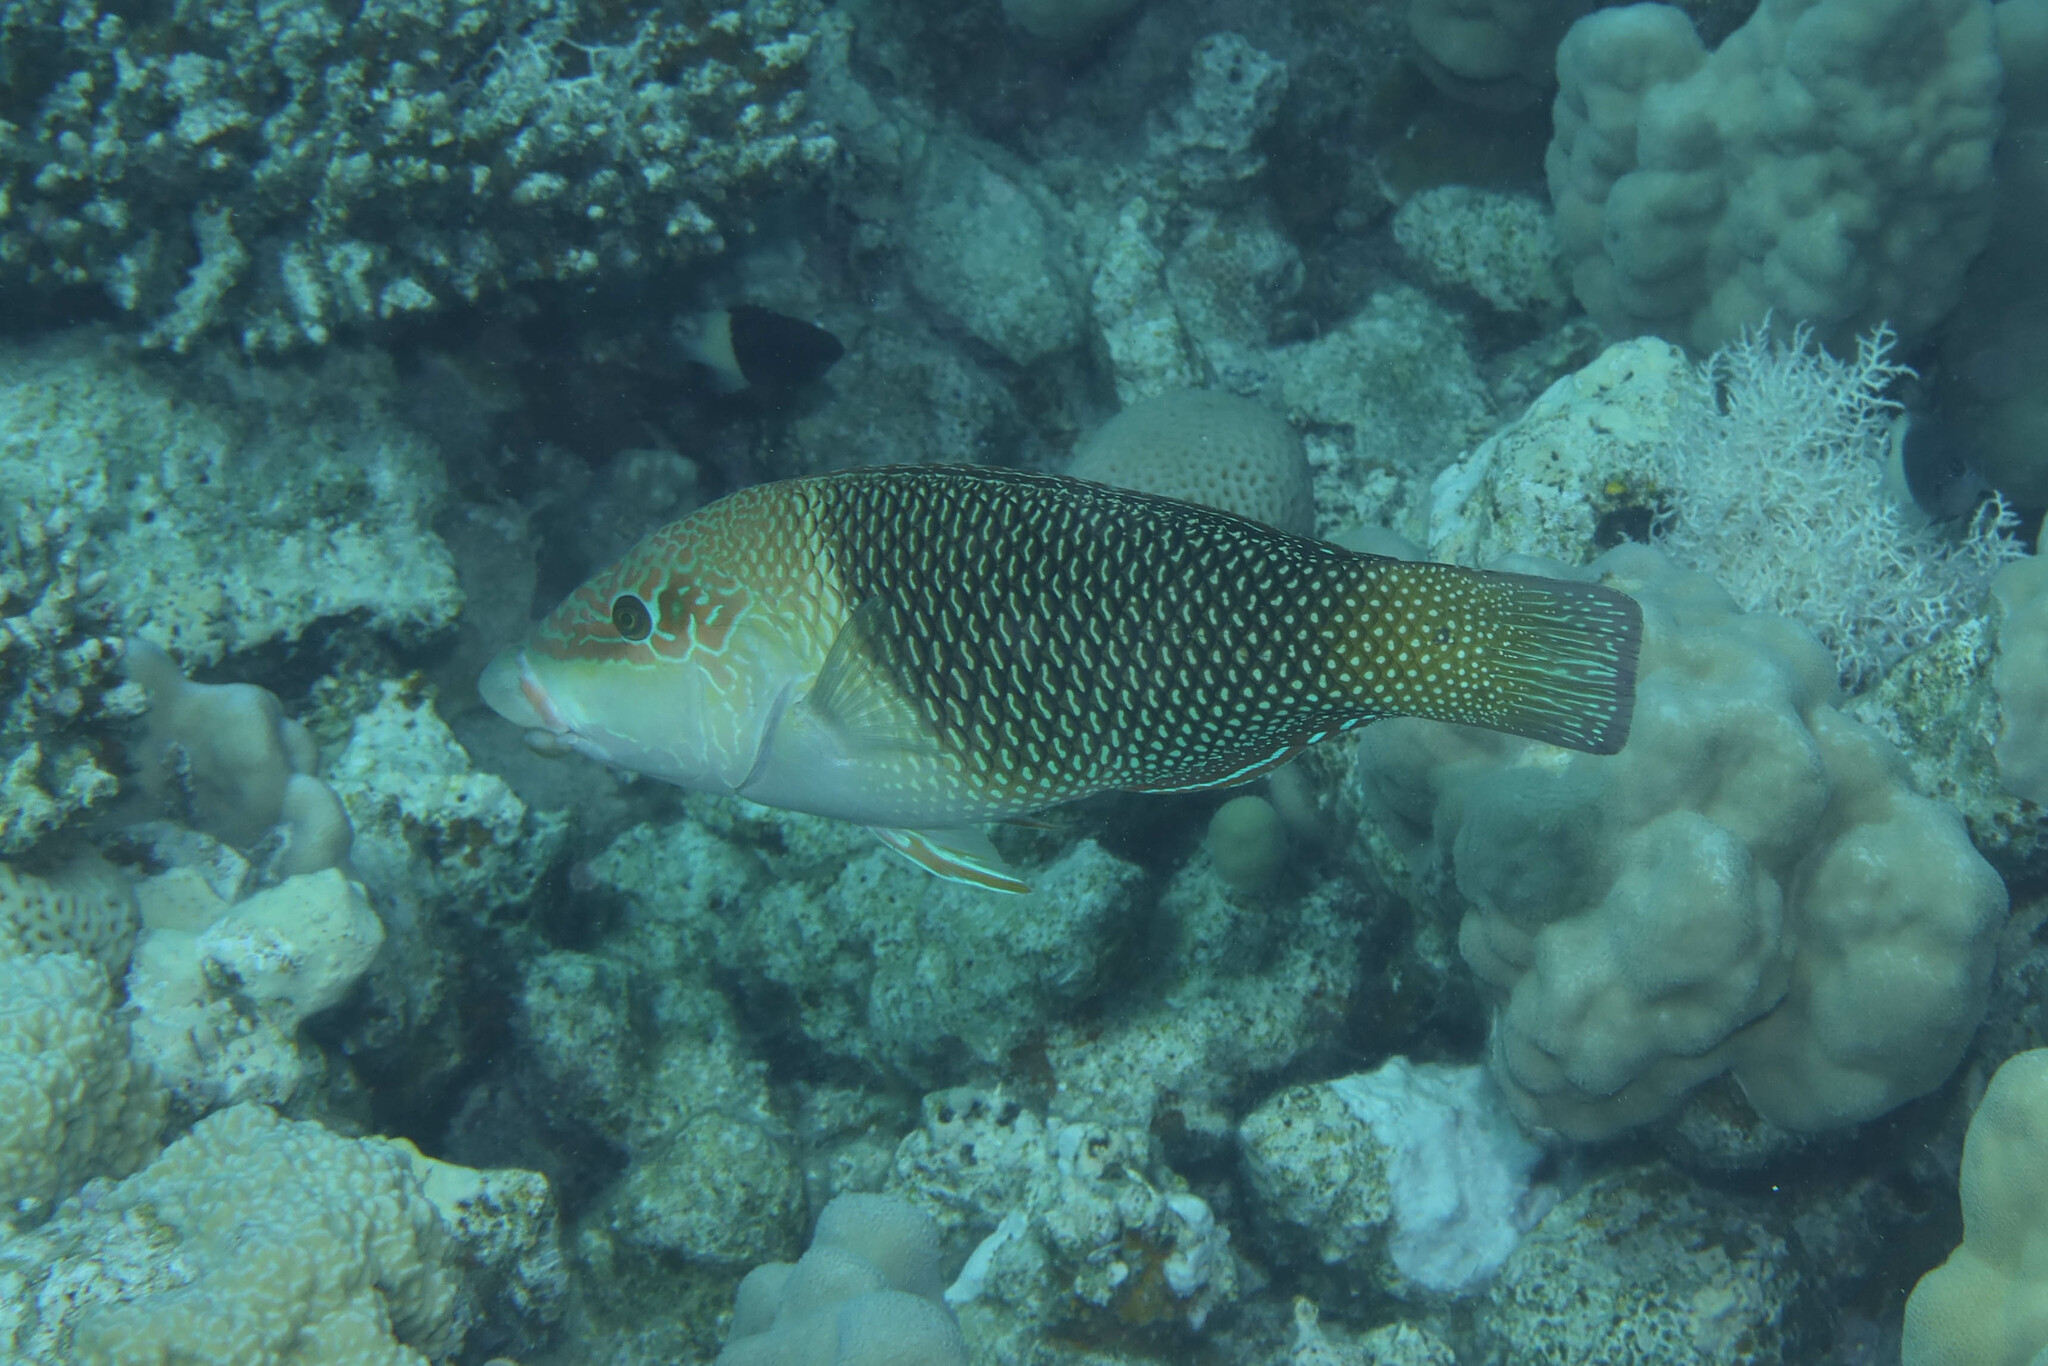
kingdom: Animalia
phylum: Chordata
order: Perciformes
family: Labridae
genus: Hemigymnus
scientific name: Hemigymnus melapterus
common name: Blackeye thicklip
